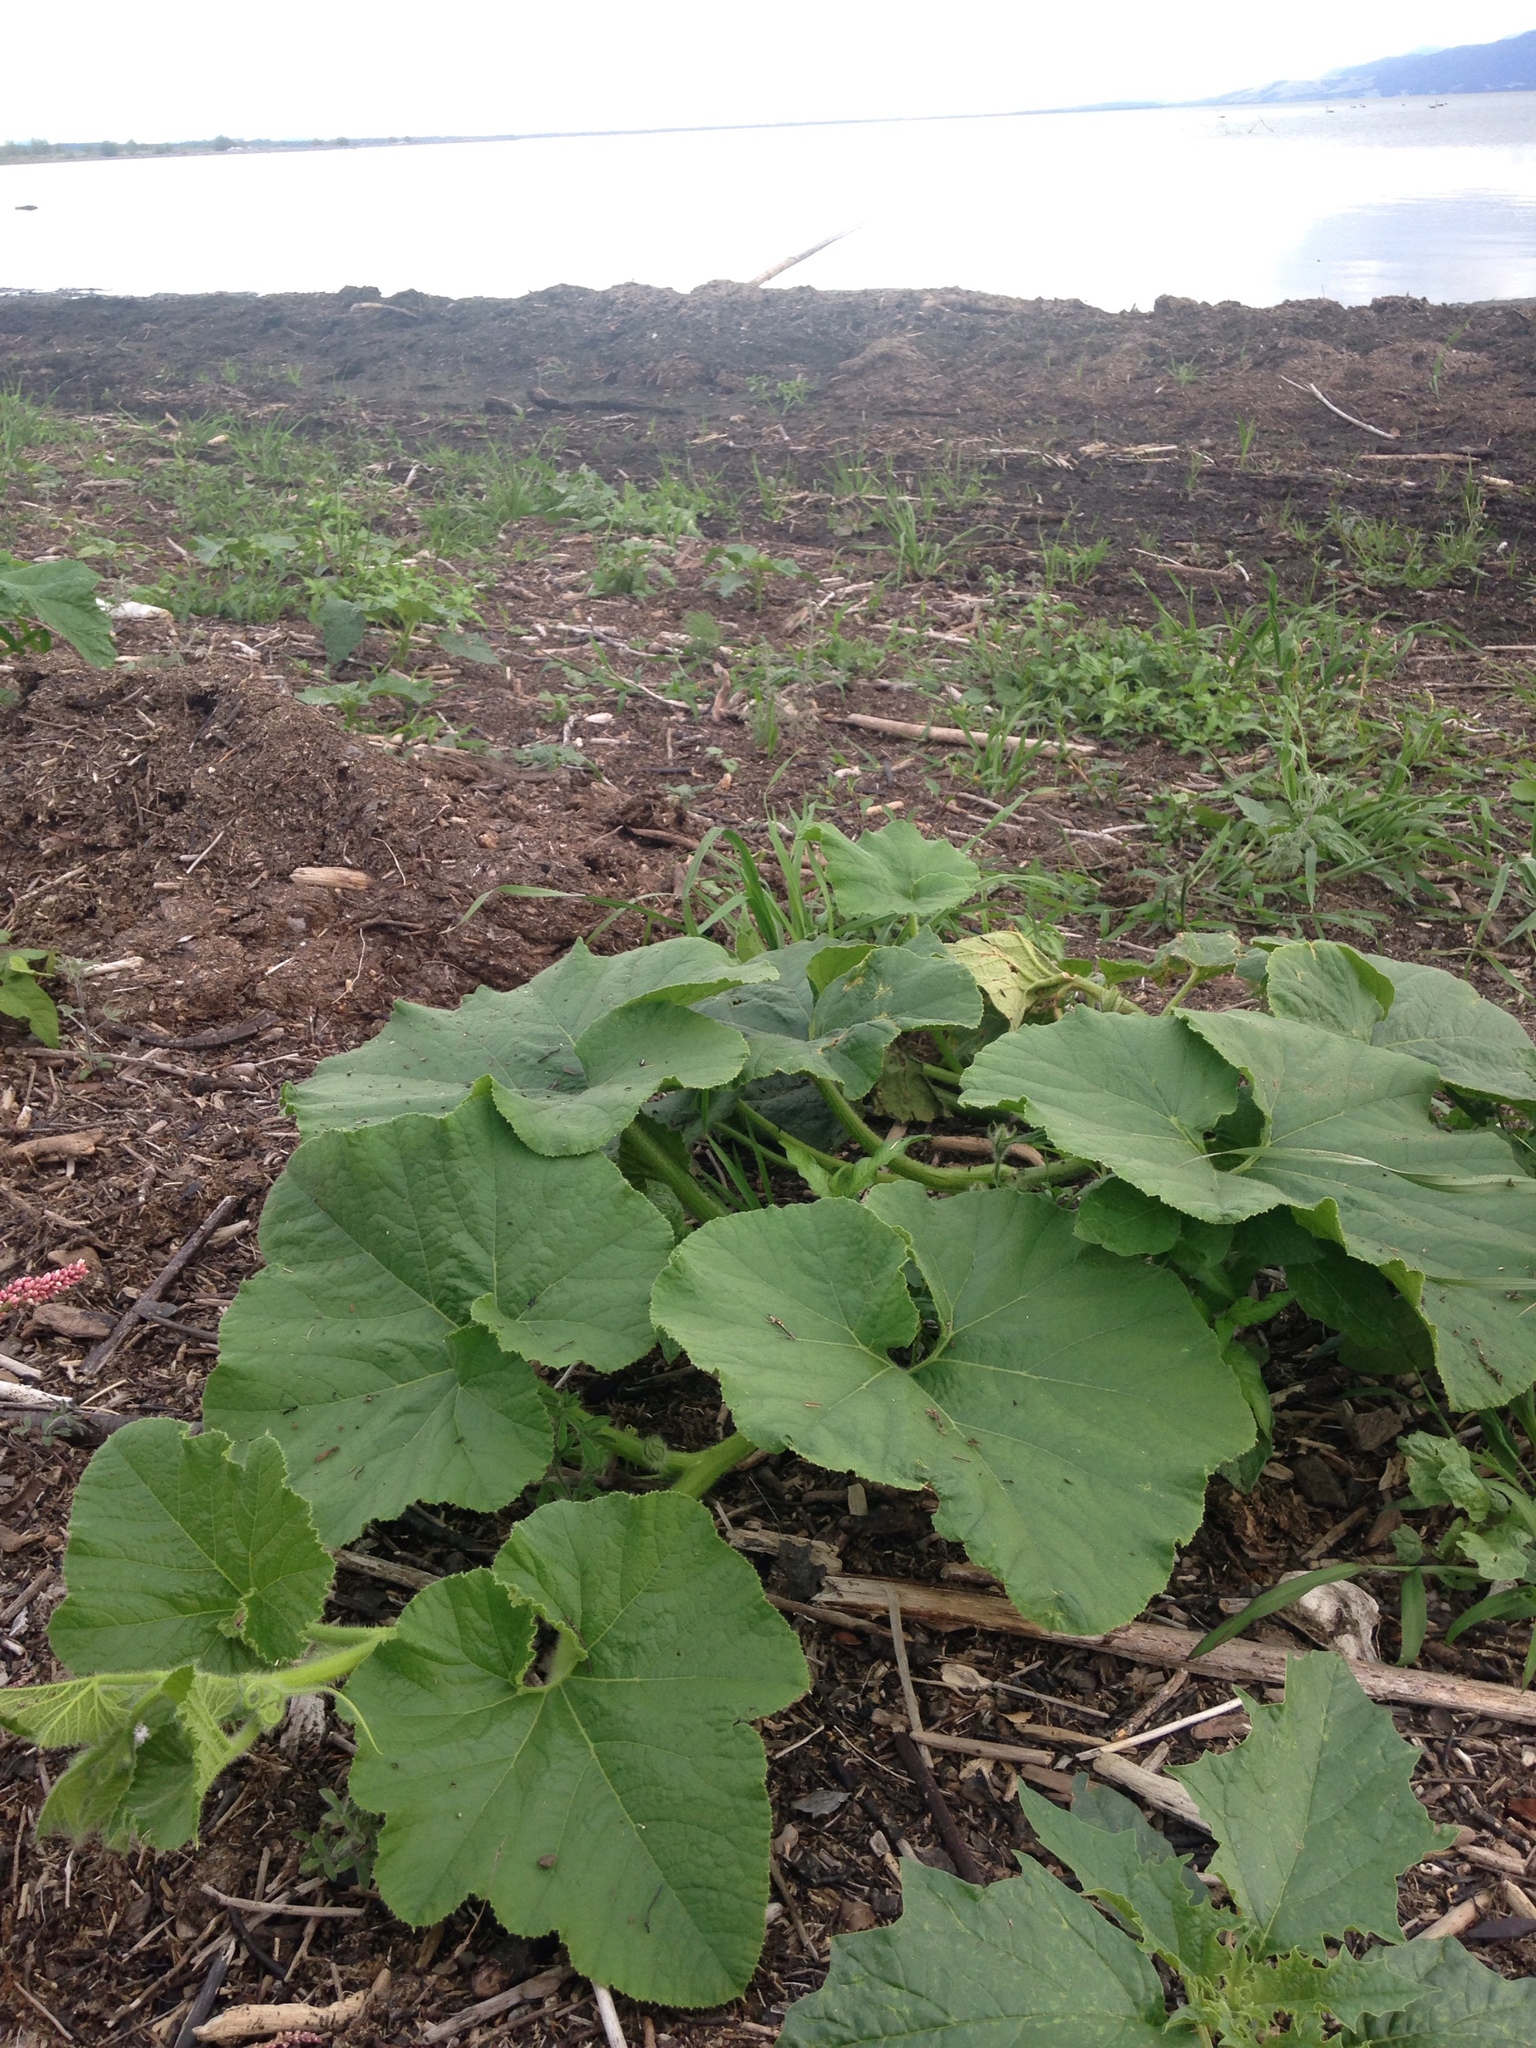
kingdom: Plantae
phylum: Tracheophyta
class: Magnoliopsida
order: Cucurbitales
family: Cucurbitaceae
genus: Cucurbita
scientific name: Cucurbita maxima
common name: Pumpkin
